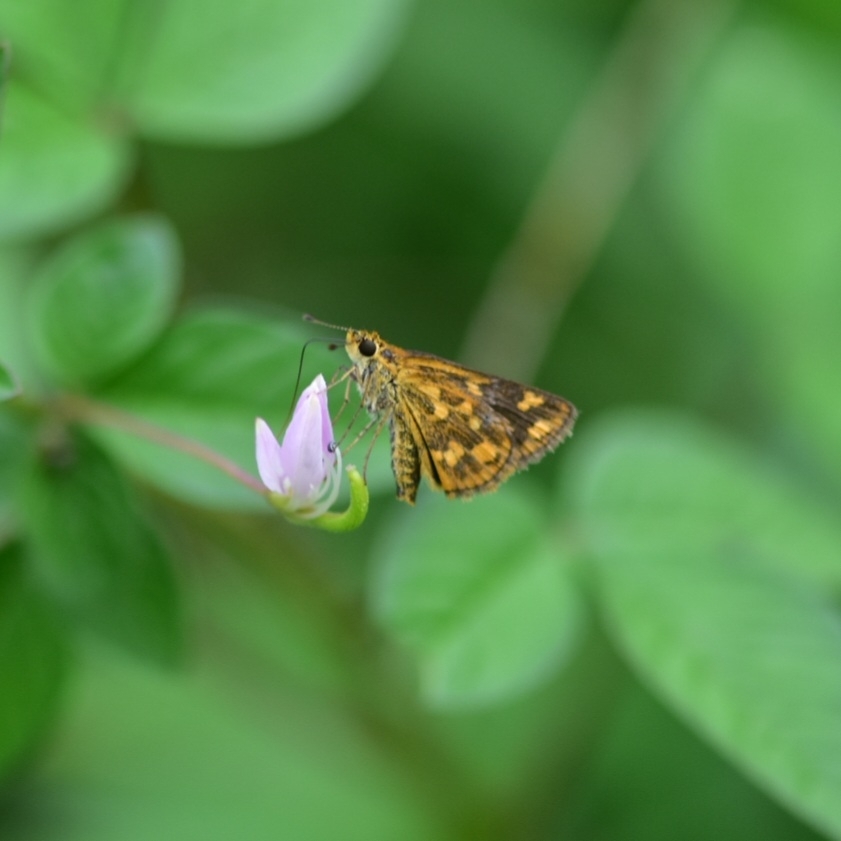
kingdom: Animalia
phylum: Arthropoda
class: Insecta
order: Lepidoptera
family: Hesperiidae
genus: Taractrocera
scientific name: Taractrocera ceramas
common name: Tamil grass dart
